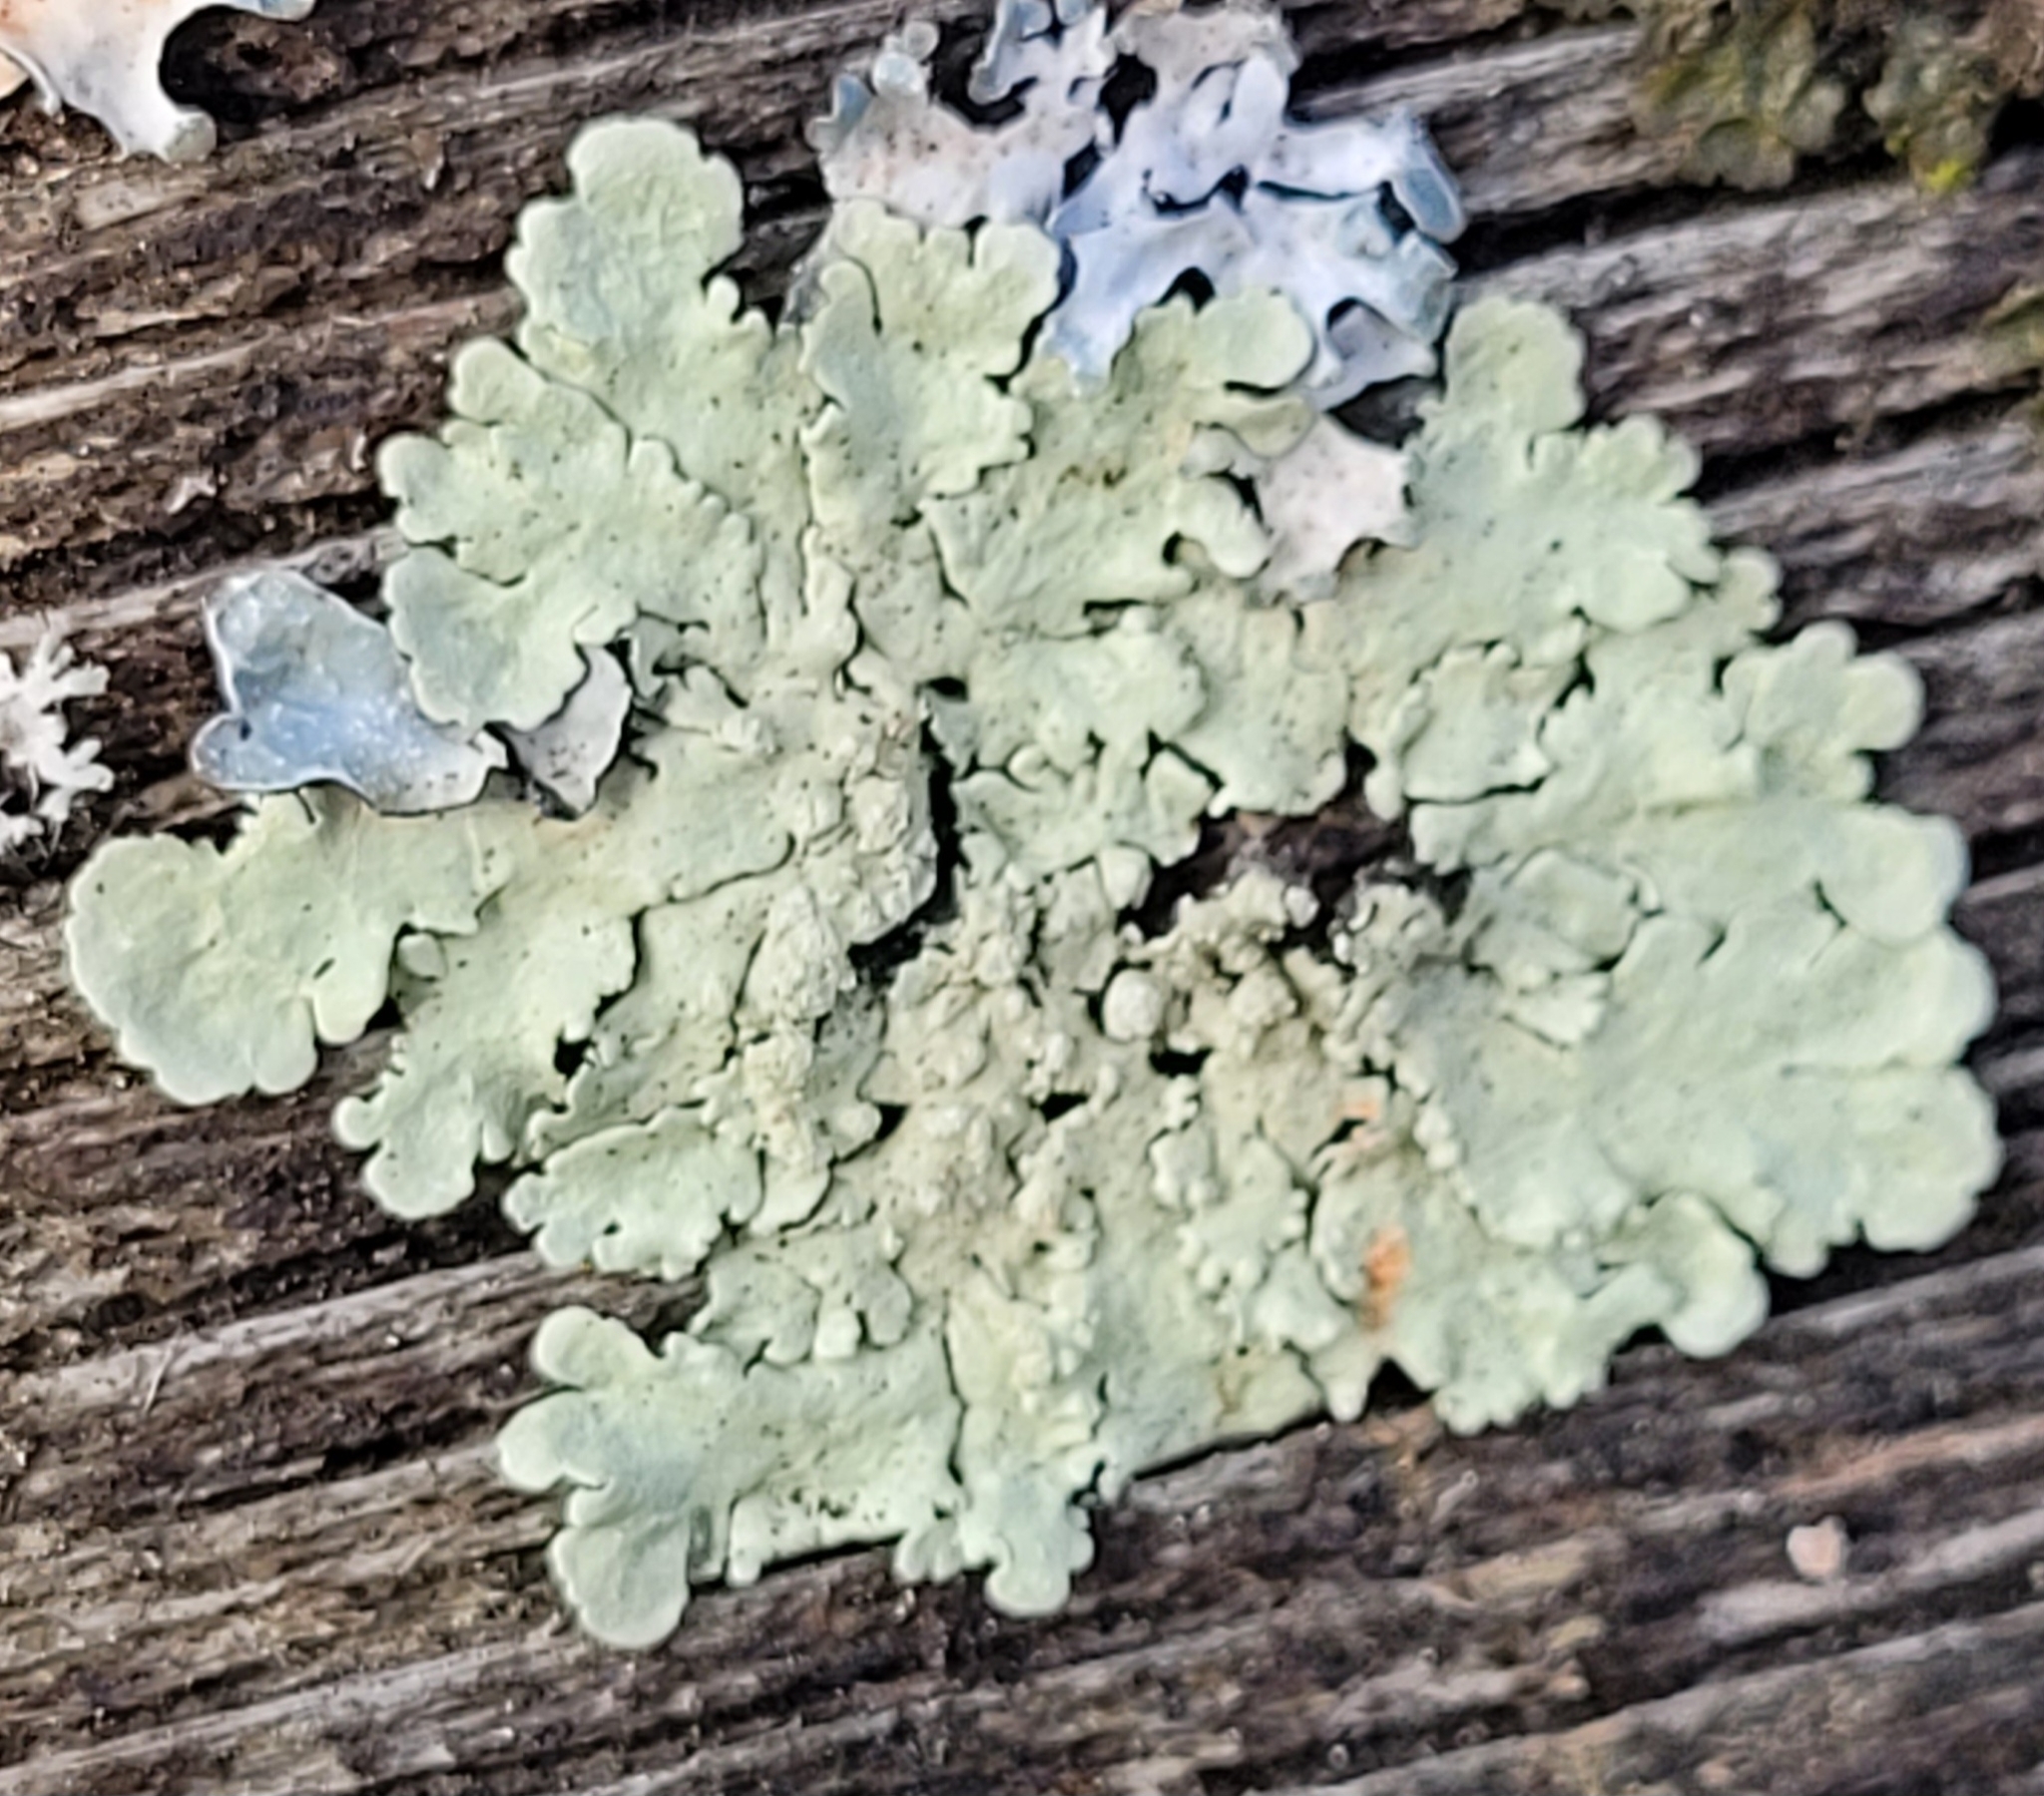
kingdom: Fungi
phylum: Ascomycota
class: Lecanoromycetes
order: Lecanorales
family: Parmeliaceae
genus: Flavoparmelia
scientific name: Flavoparmelia soredians
